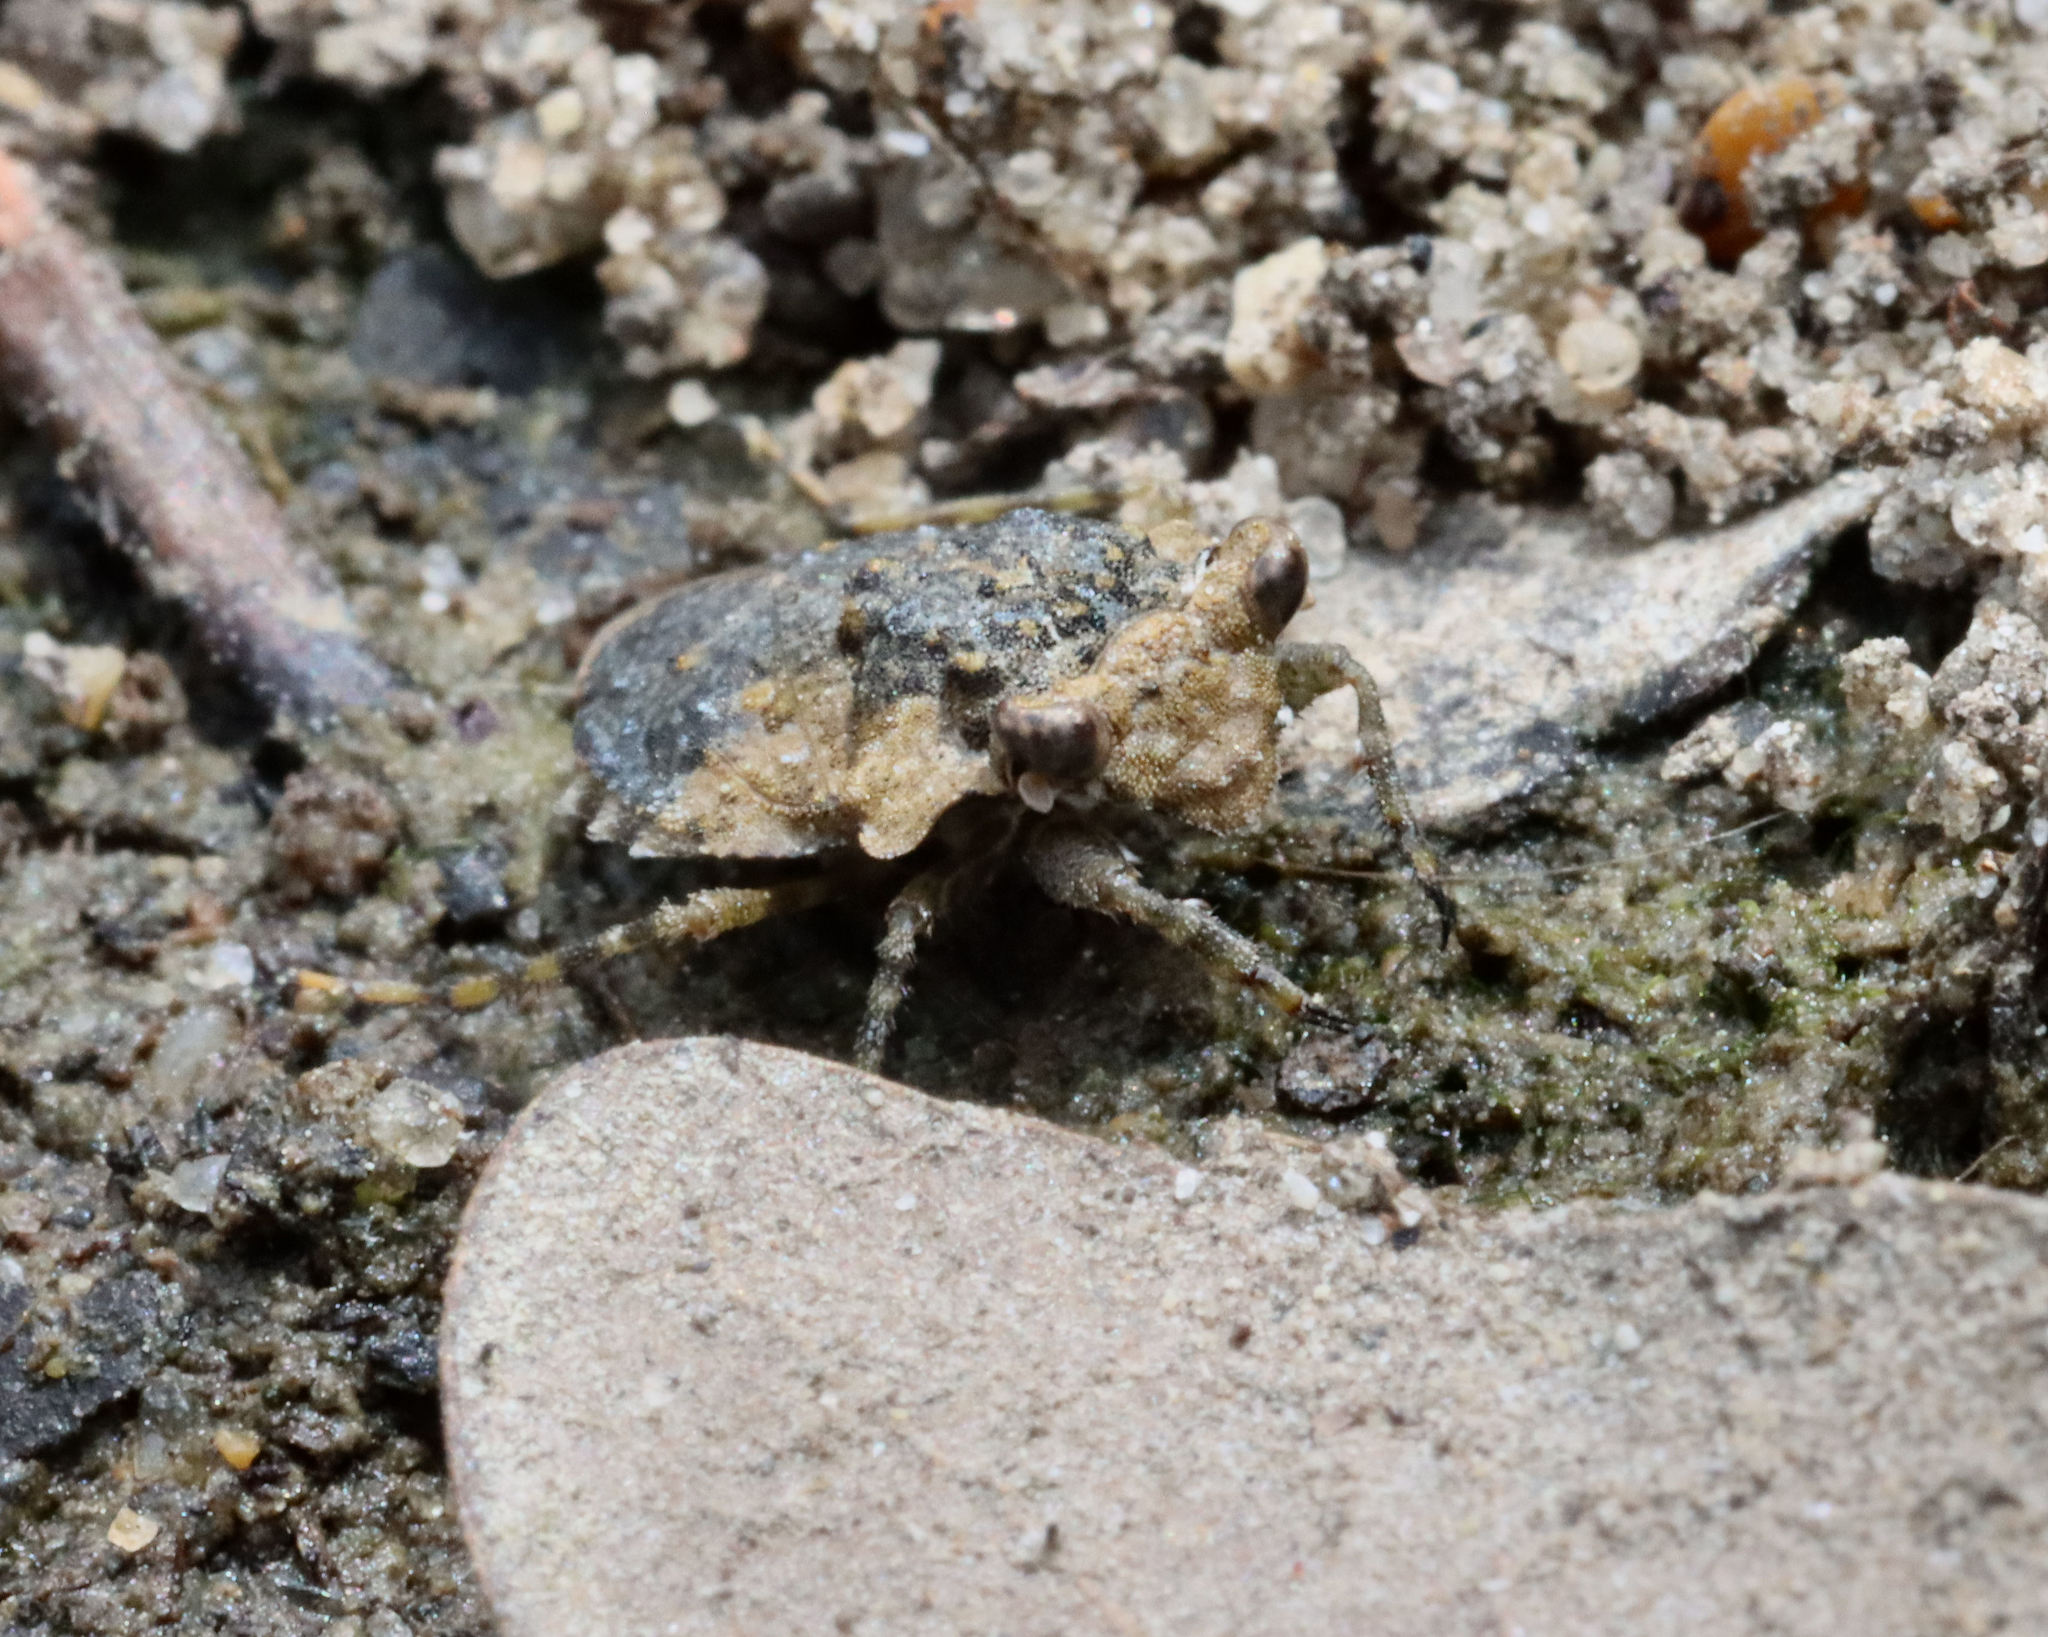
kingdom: Animalia
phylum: Arthropoda
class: Insecta
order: Hemiptera
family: Gelastocoridae
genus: Gelastocoris
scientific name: Gelastocoris oculatus
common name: Toad bug
